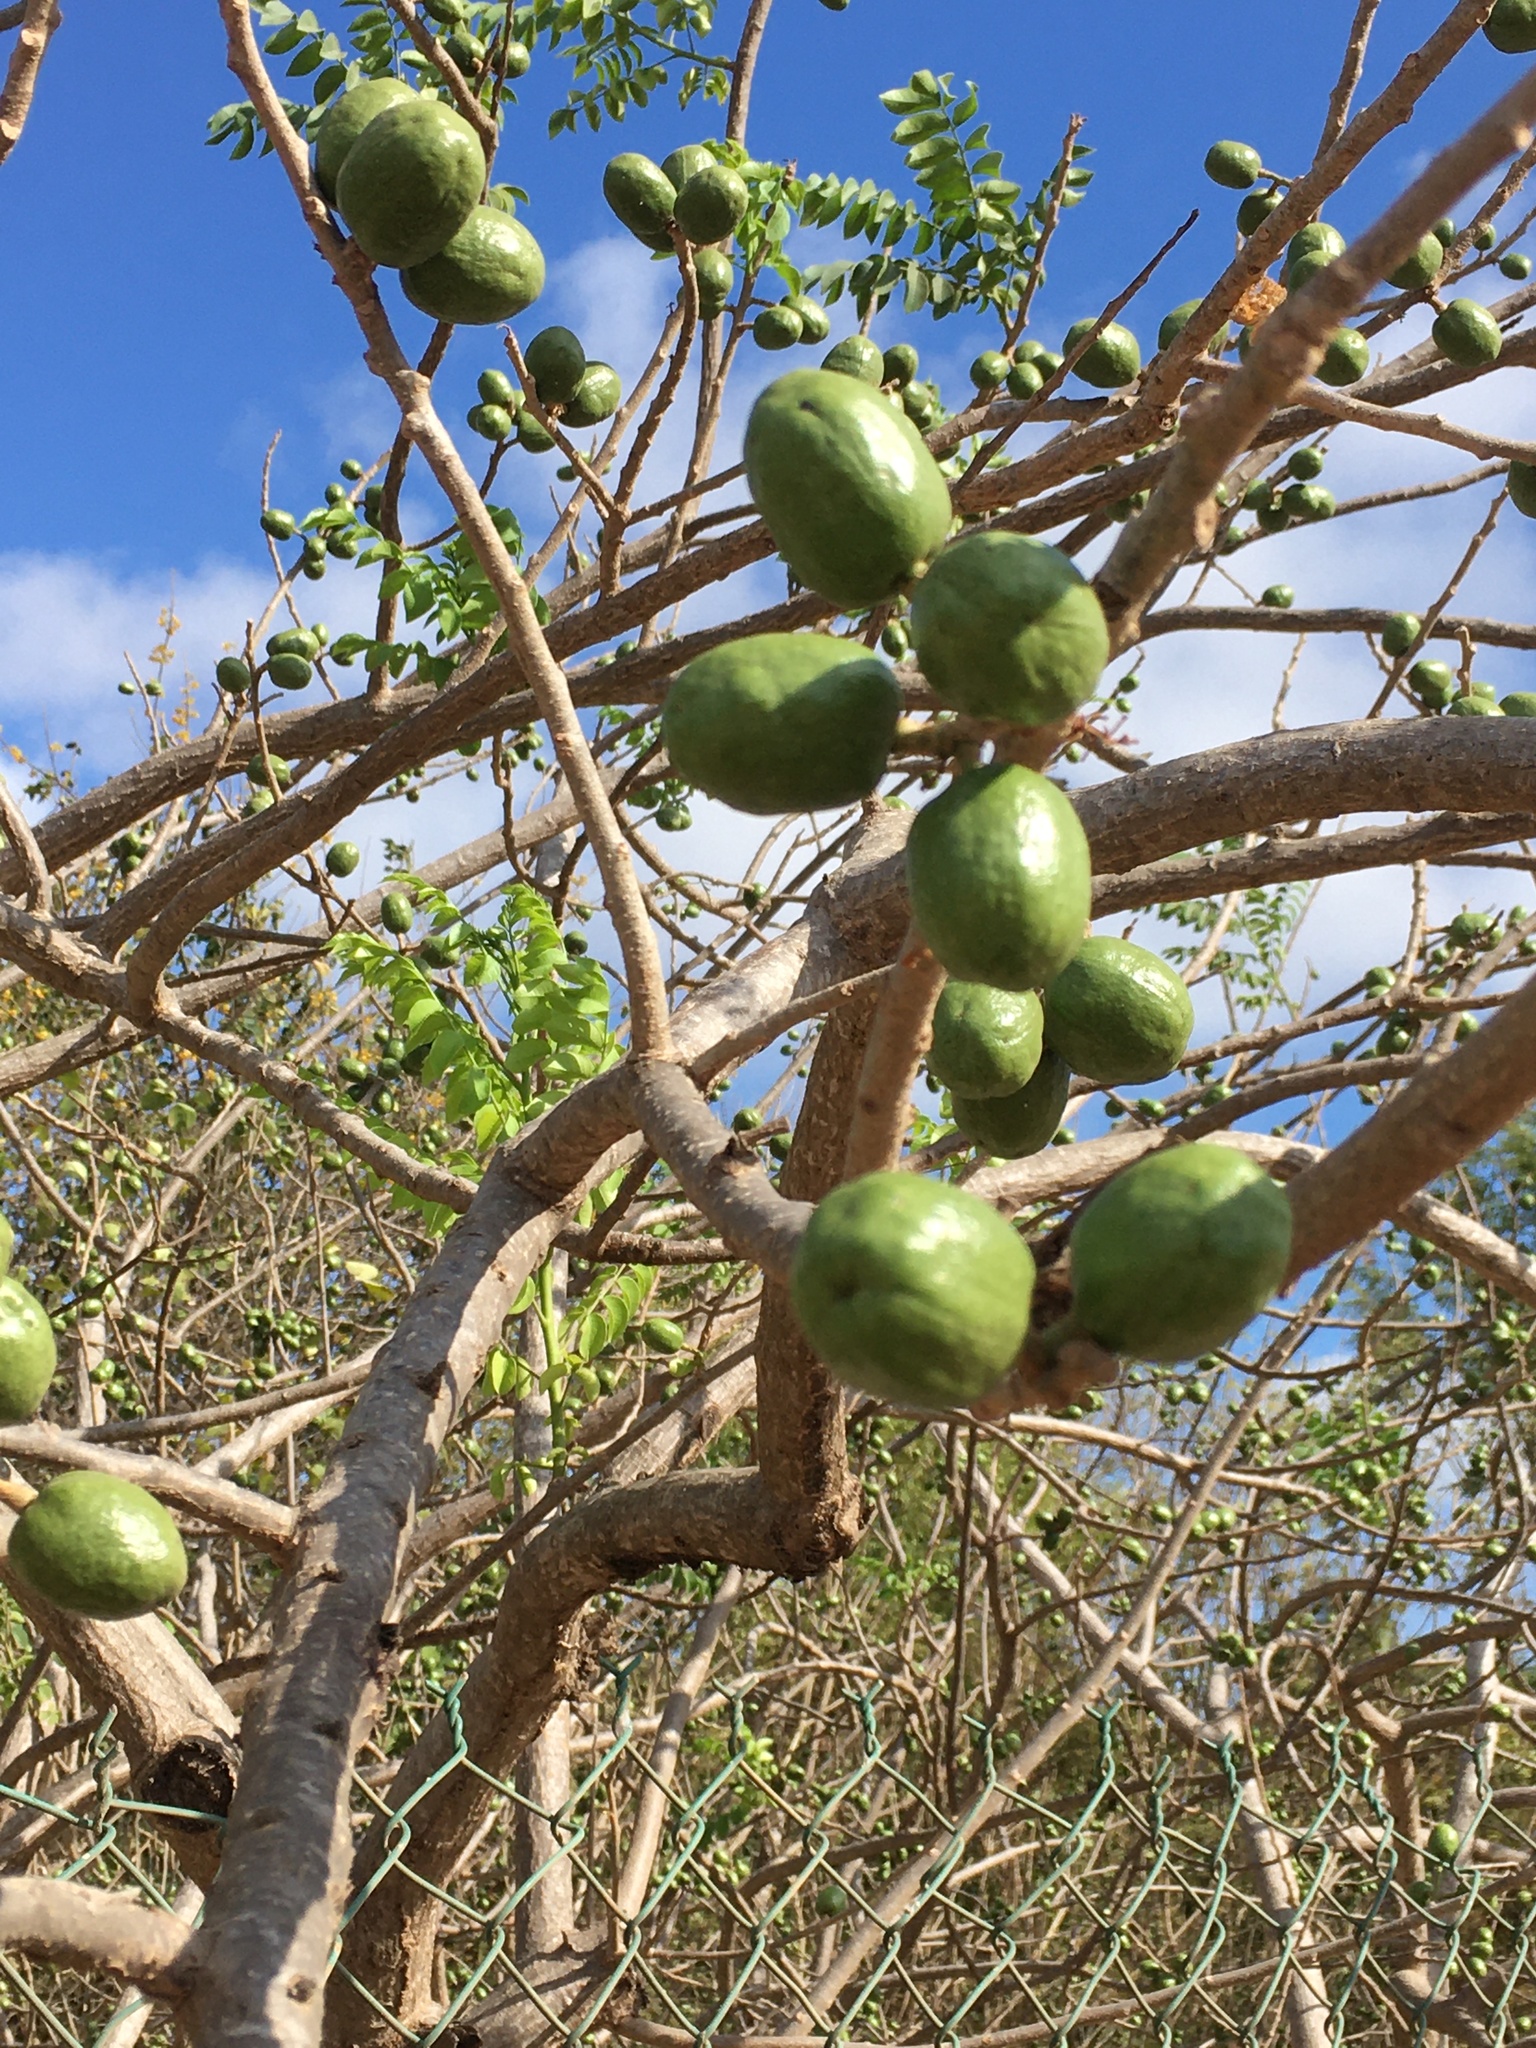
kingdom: Plantae
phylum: Tracheophyta
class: Magnoliopsida
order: Sapindales
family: Anacardiaceae
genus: Spondias
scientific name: Spondias purpurea
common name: Purple mombin
